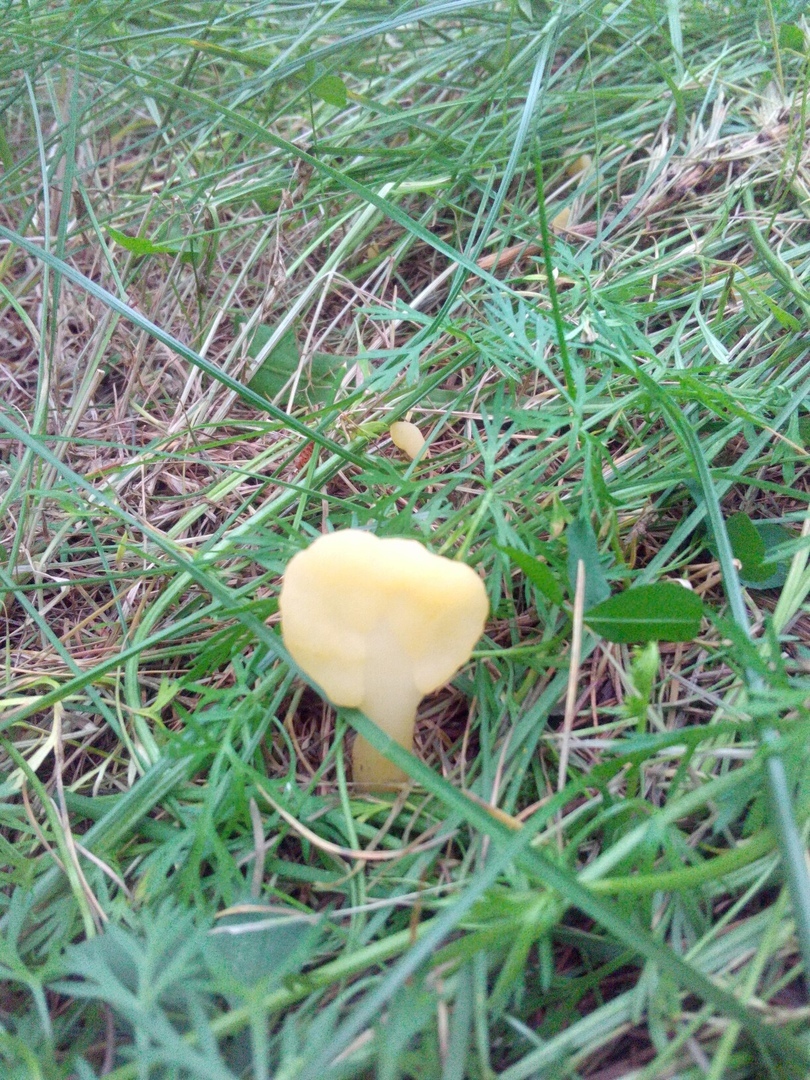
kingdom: Fungi
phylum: Ascomycota
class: Leotiomycetes
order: Rhytismatales
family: Cudoniaceae
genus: Spathularia
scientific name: Spathularia flavida
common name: Yellow fan
